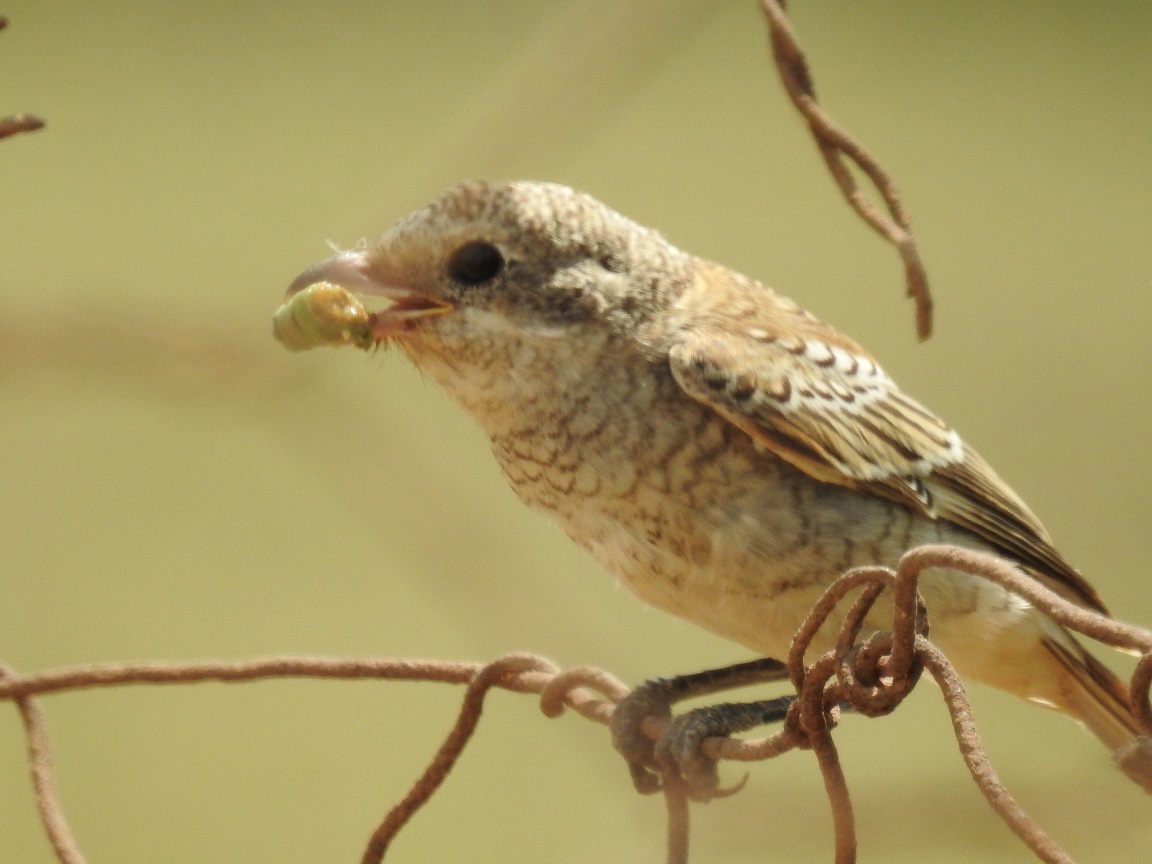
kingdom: Animalia
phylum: Chordata
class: Aves
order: Passeriformes
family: Laniidae
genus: Lanius
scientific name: Lanius senator
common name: Woodchat shrike
